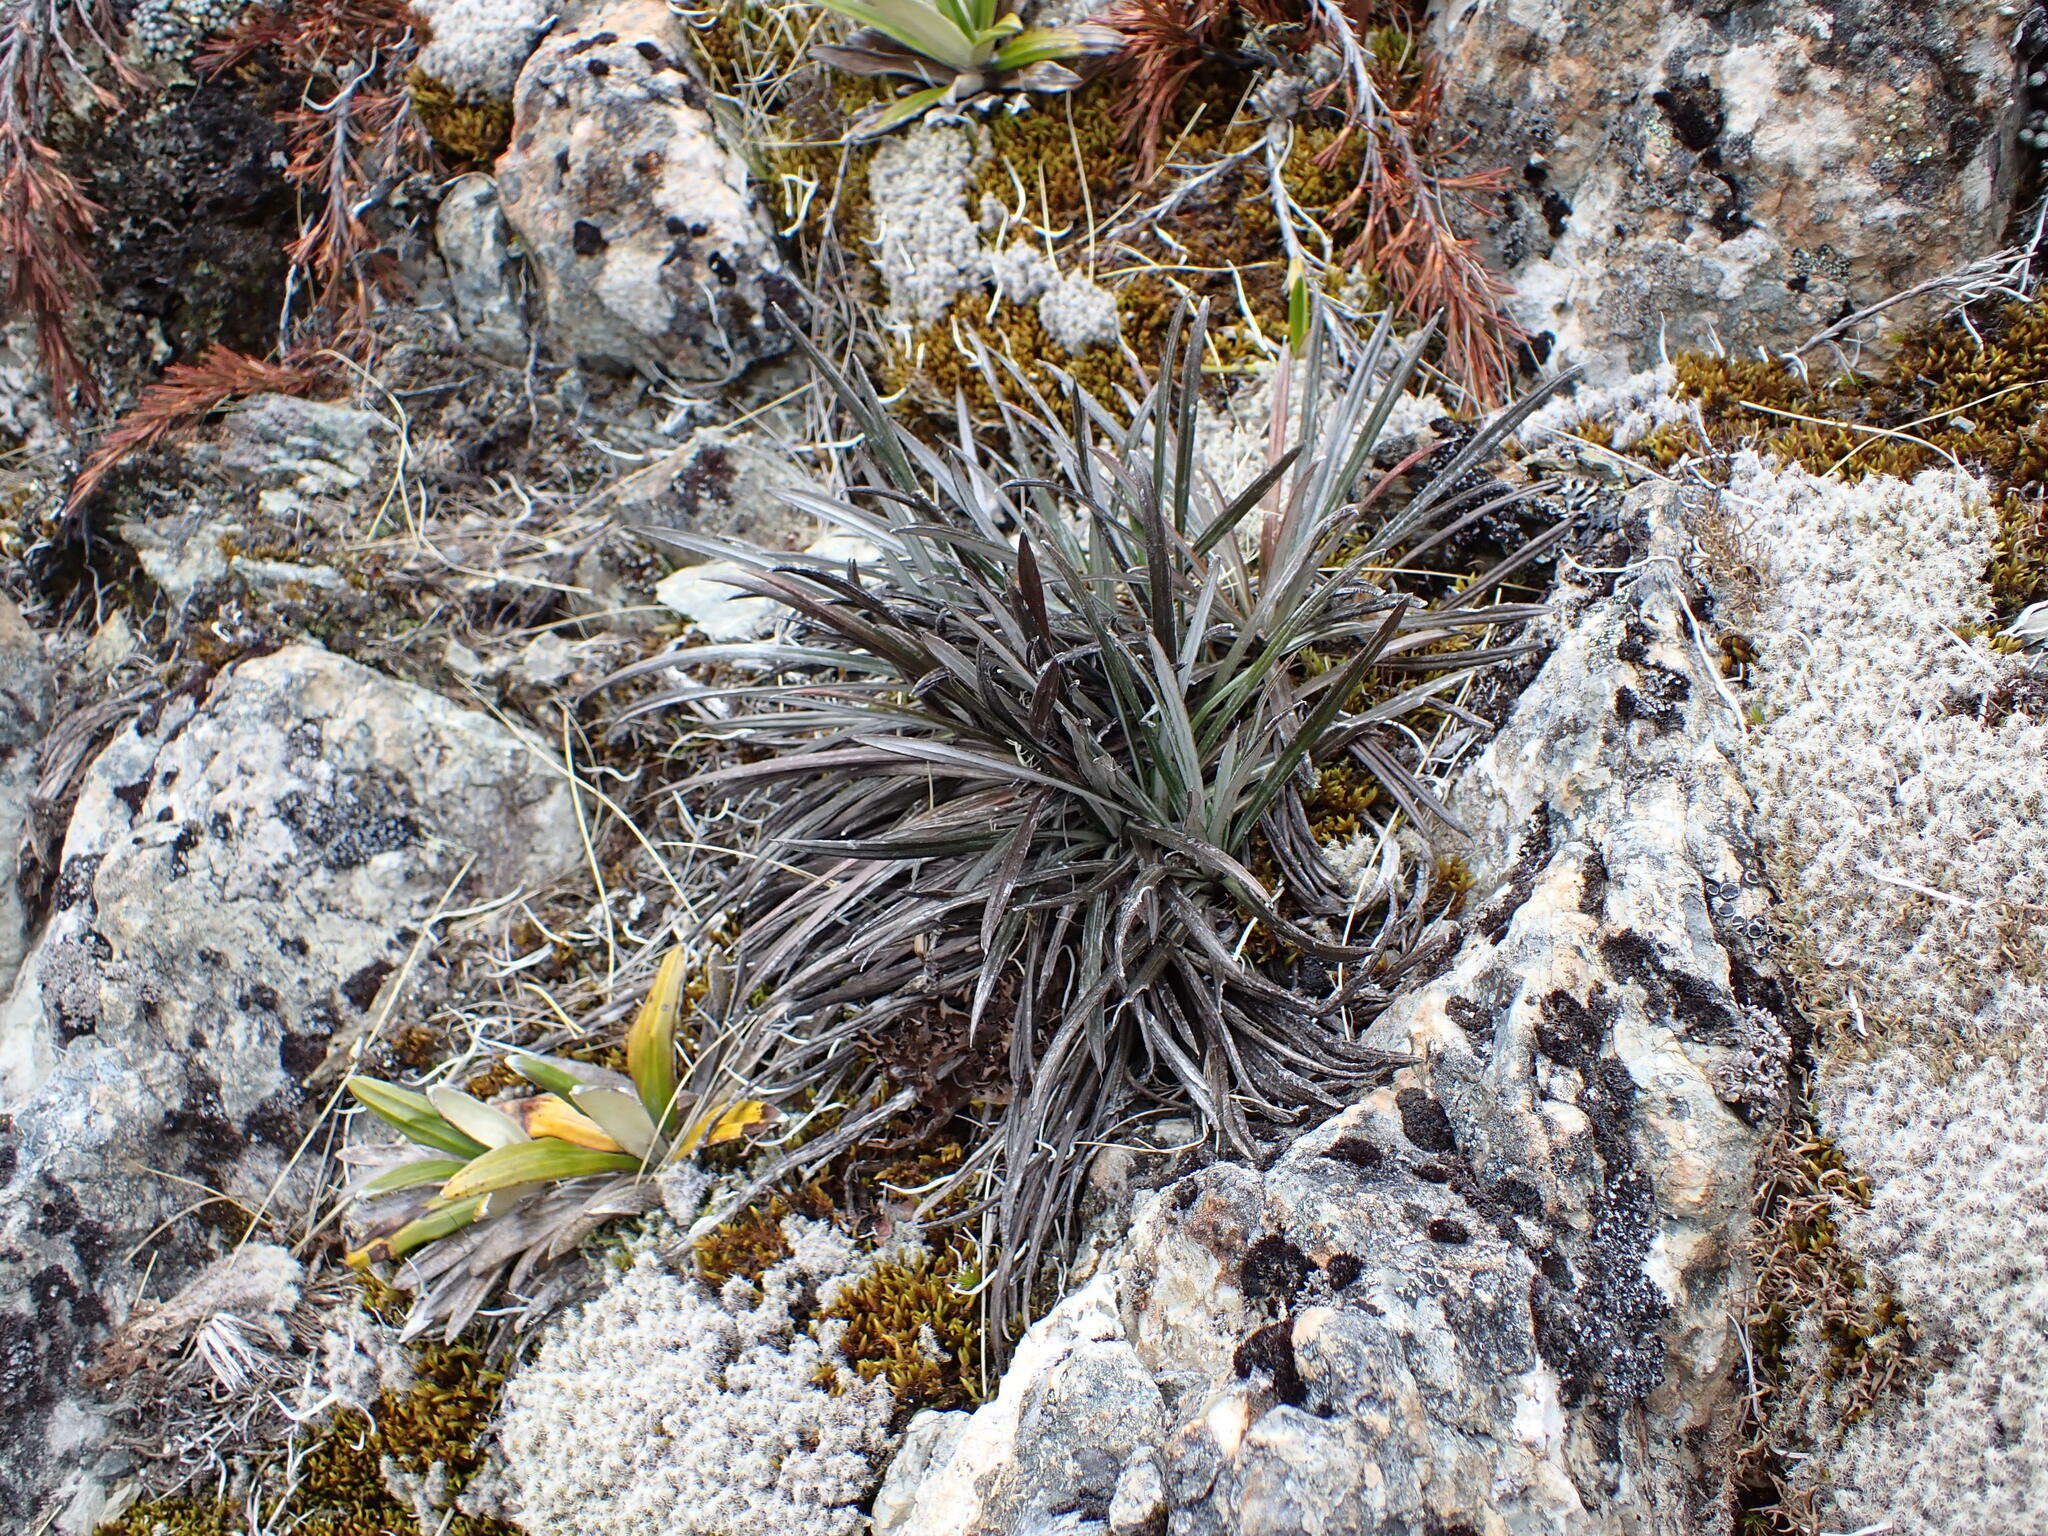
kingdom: Plantae
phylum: Tracheophyta
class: Magnoliopsida
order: Asterales
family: Asteraceae
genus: Celmisia
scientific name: Celmisia insignis
